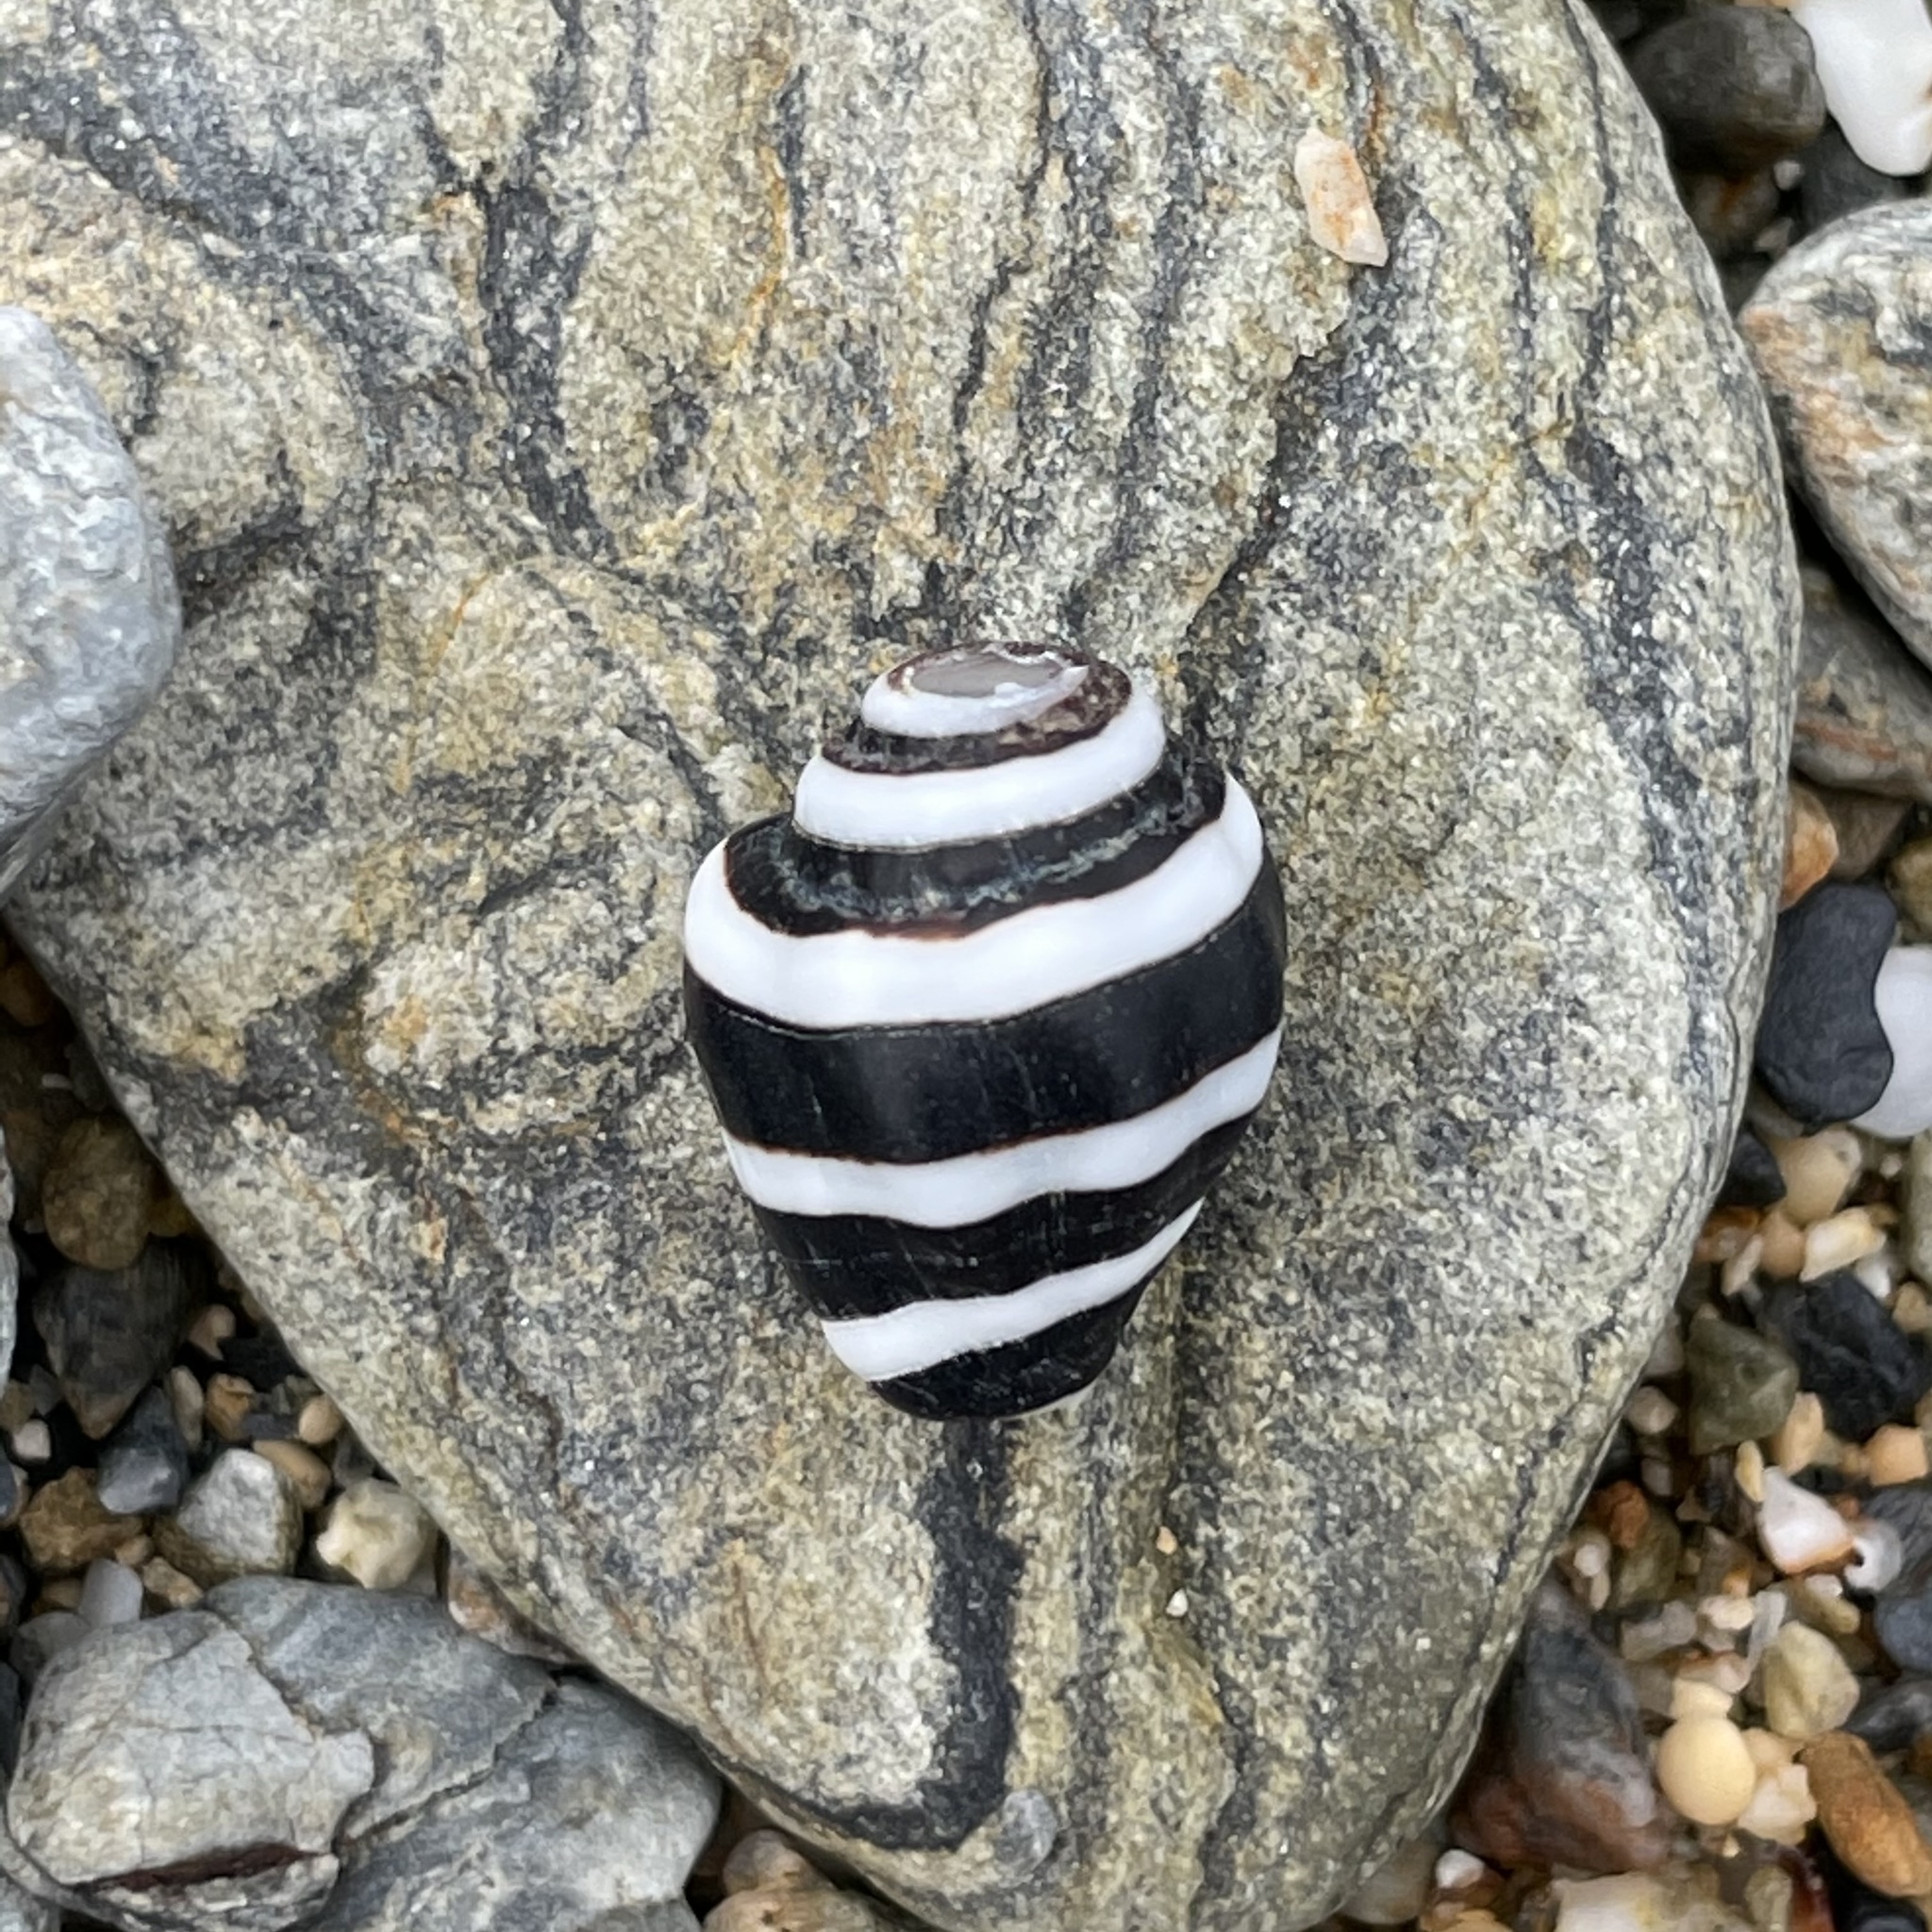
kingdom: Animalia
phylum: Mollusca
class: Gastropoda
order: Neogastropoda
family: Pisaniidae
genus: Engina
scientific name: Engina mendicaria
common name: Bumble bee snail
